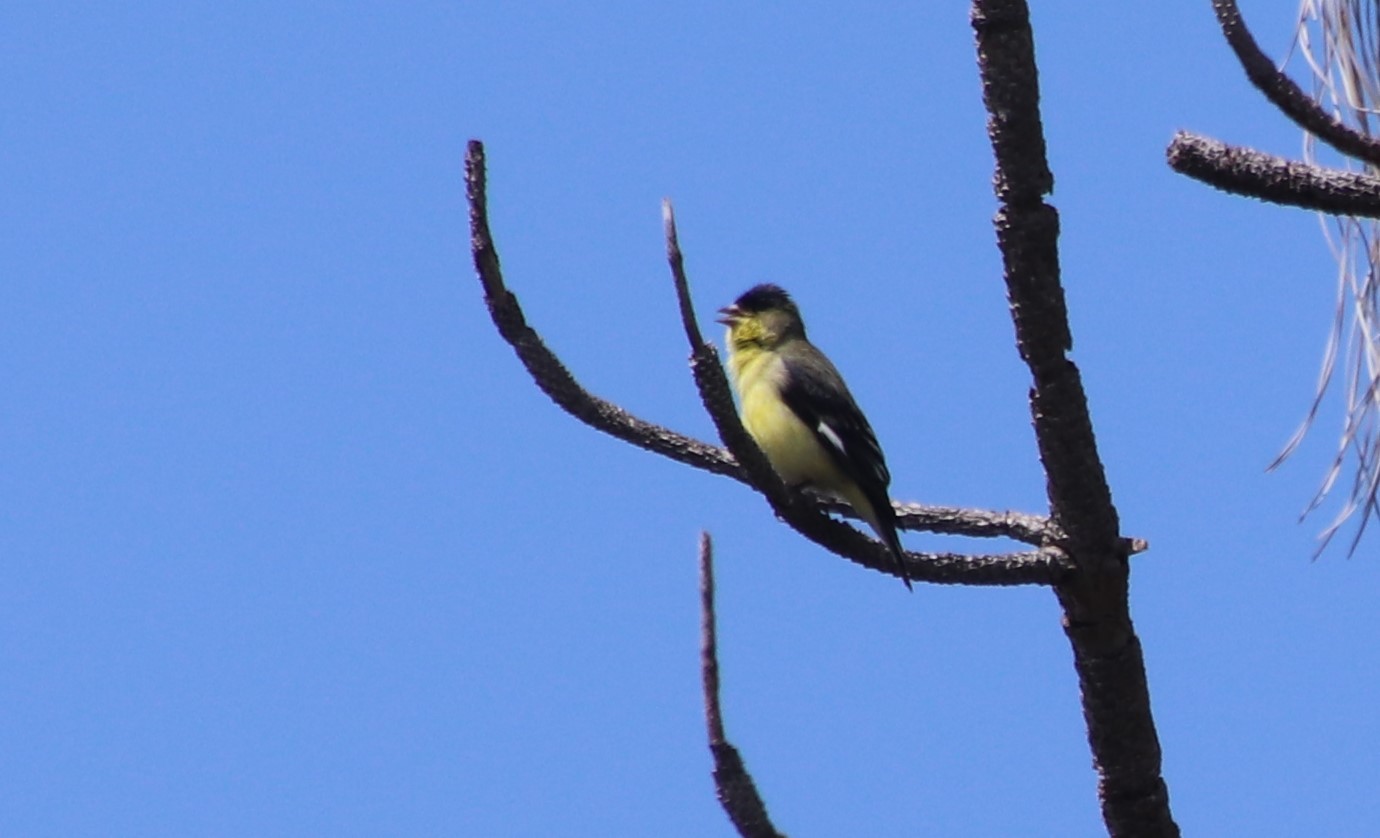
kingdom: Animalia
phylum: Chordata
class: Aves
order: Passeriformes
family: Fringillidae
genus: Spinus
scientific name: Spinus psaltria
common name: Lesser goldfinch
